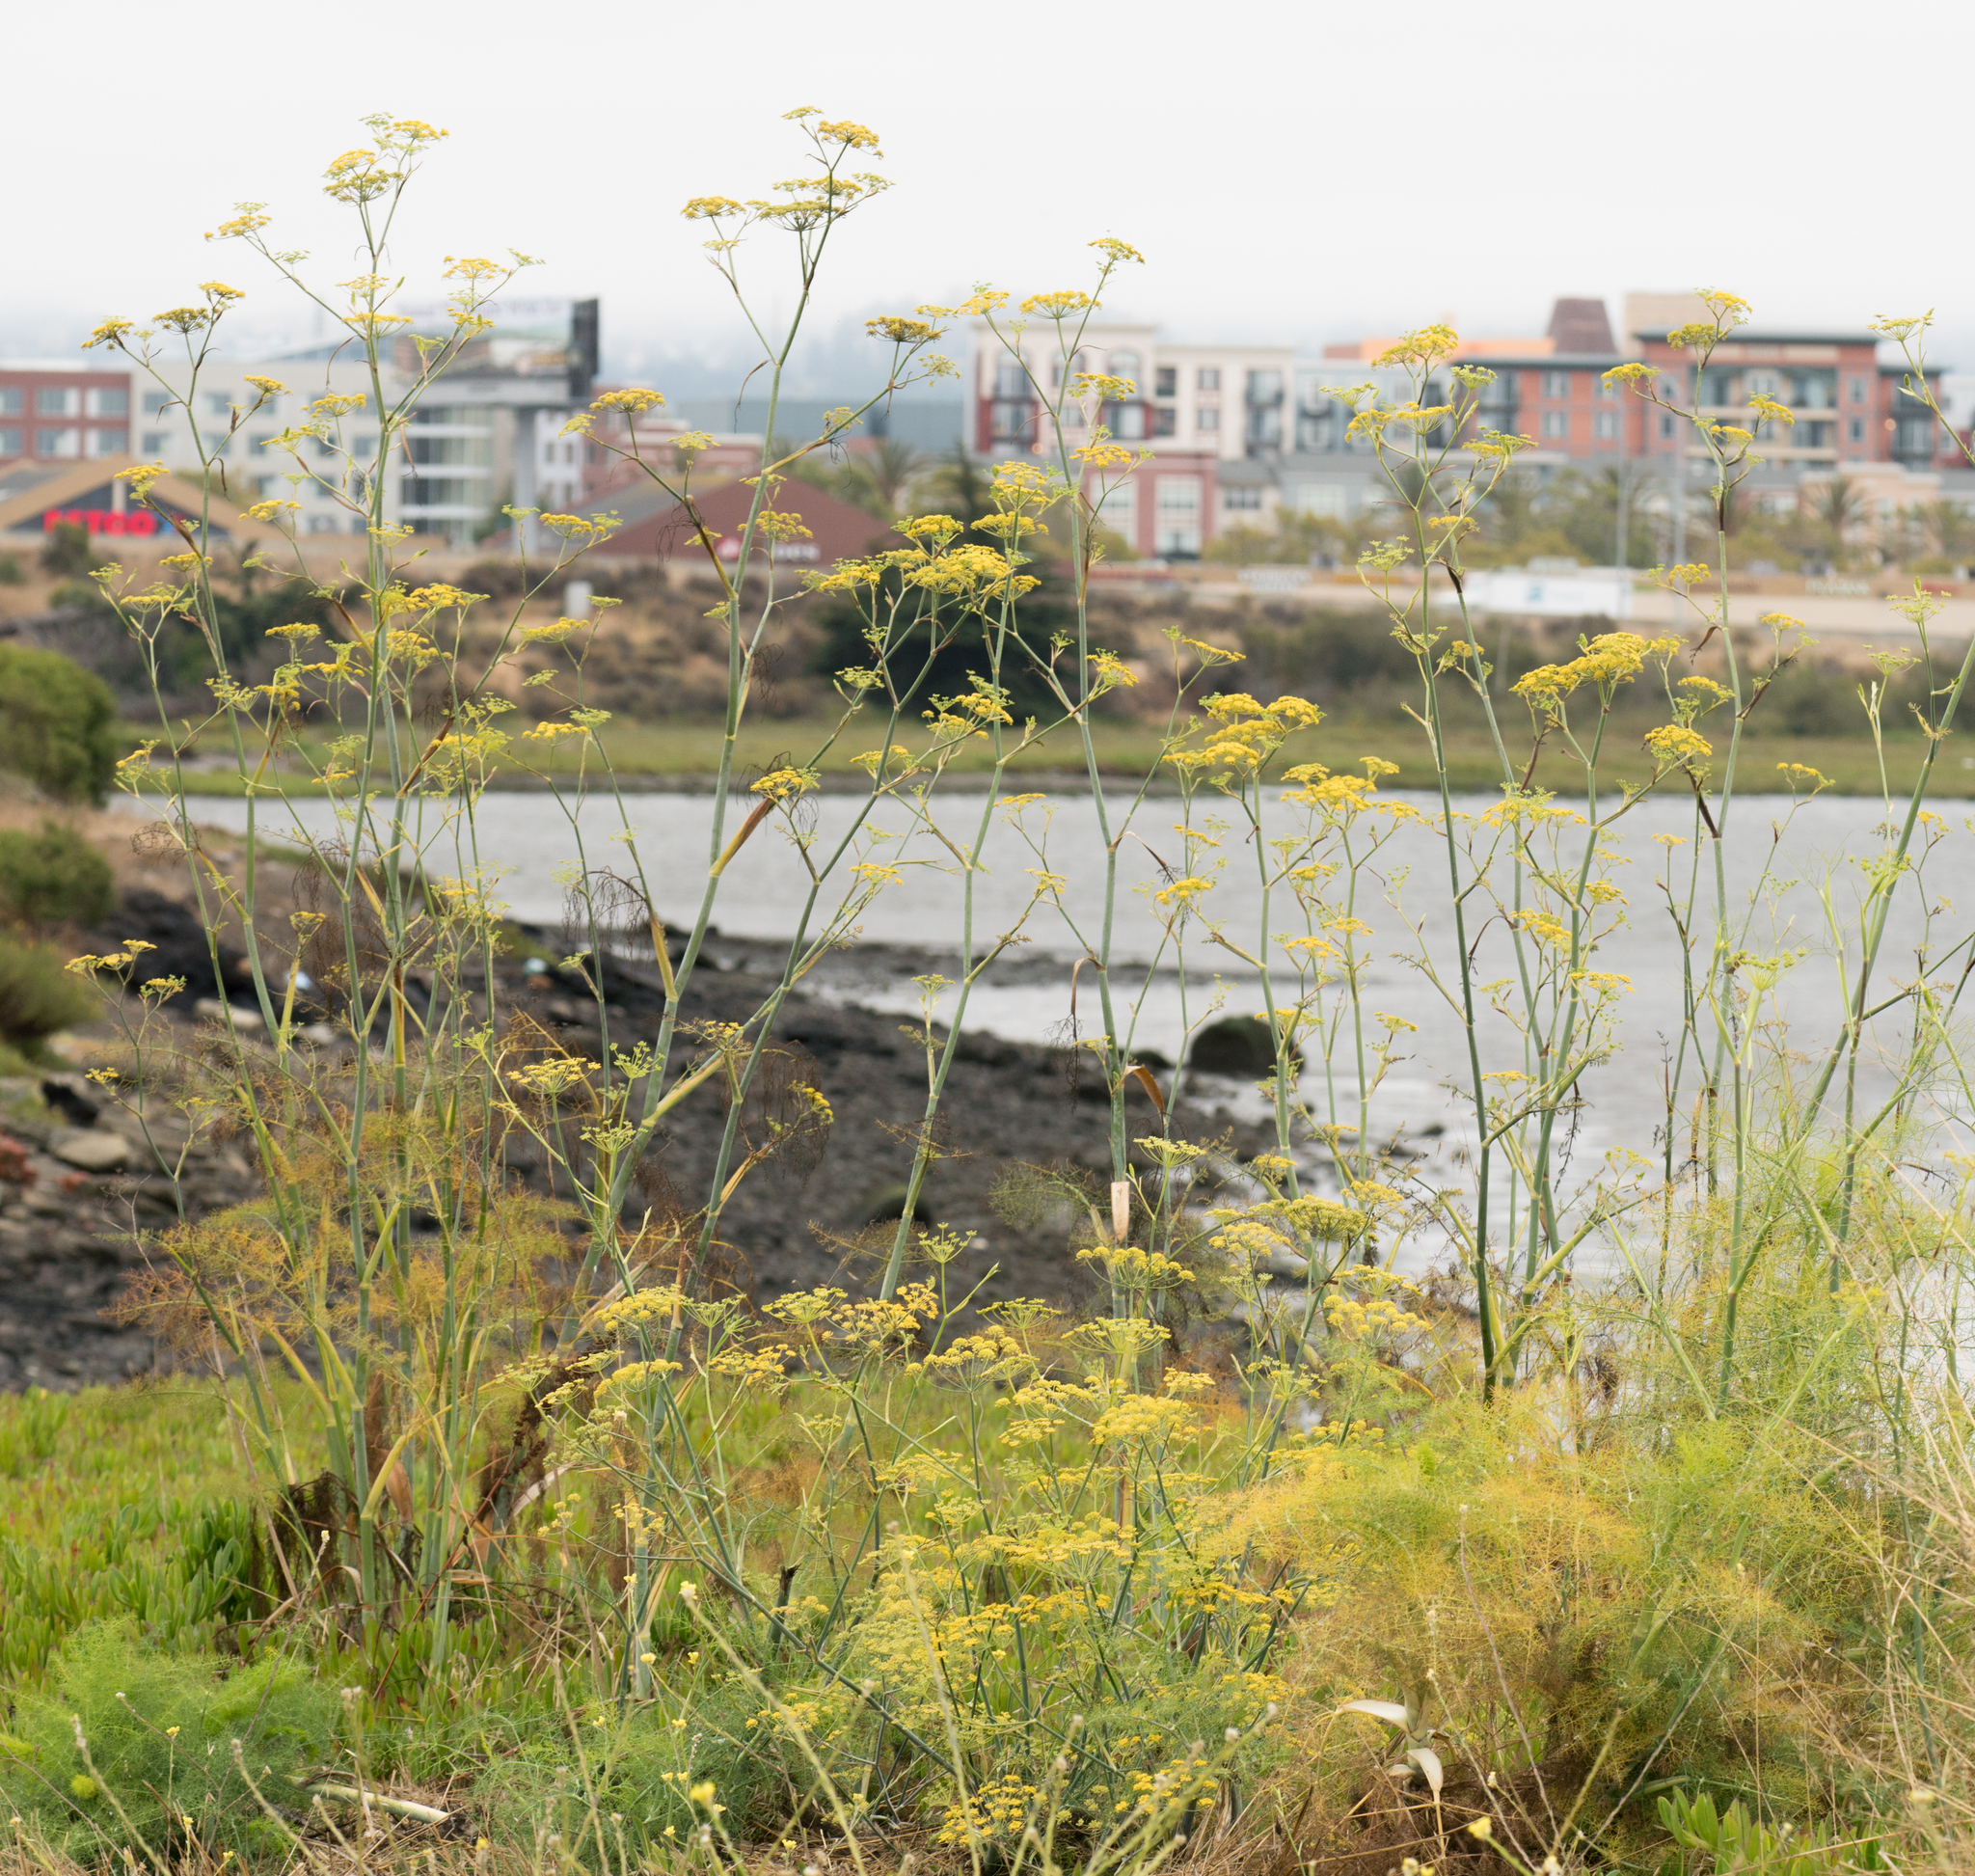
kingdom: Plantae
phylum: Tracheophyta
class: Magnoliopsida
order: Apiales
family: Apiaceae
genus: Foeniculum
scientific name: Foeniculum vulgare
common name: Fennel
